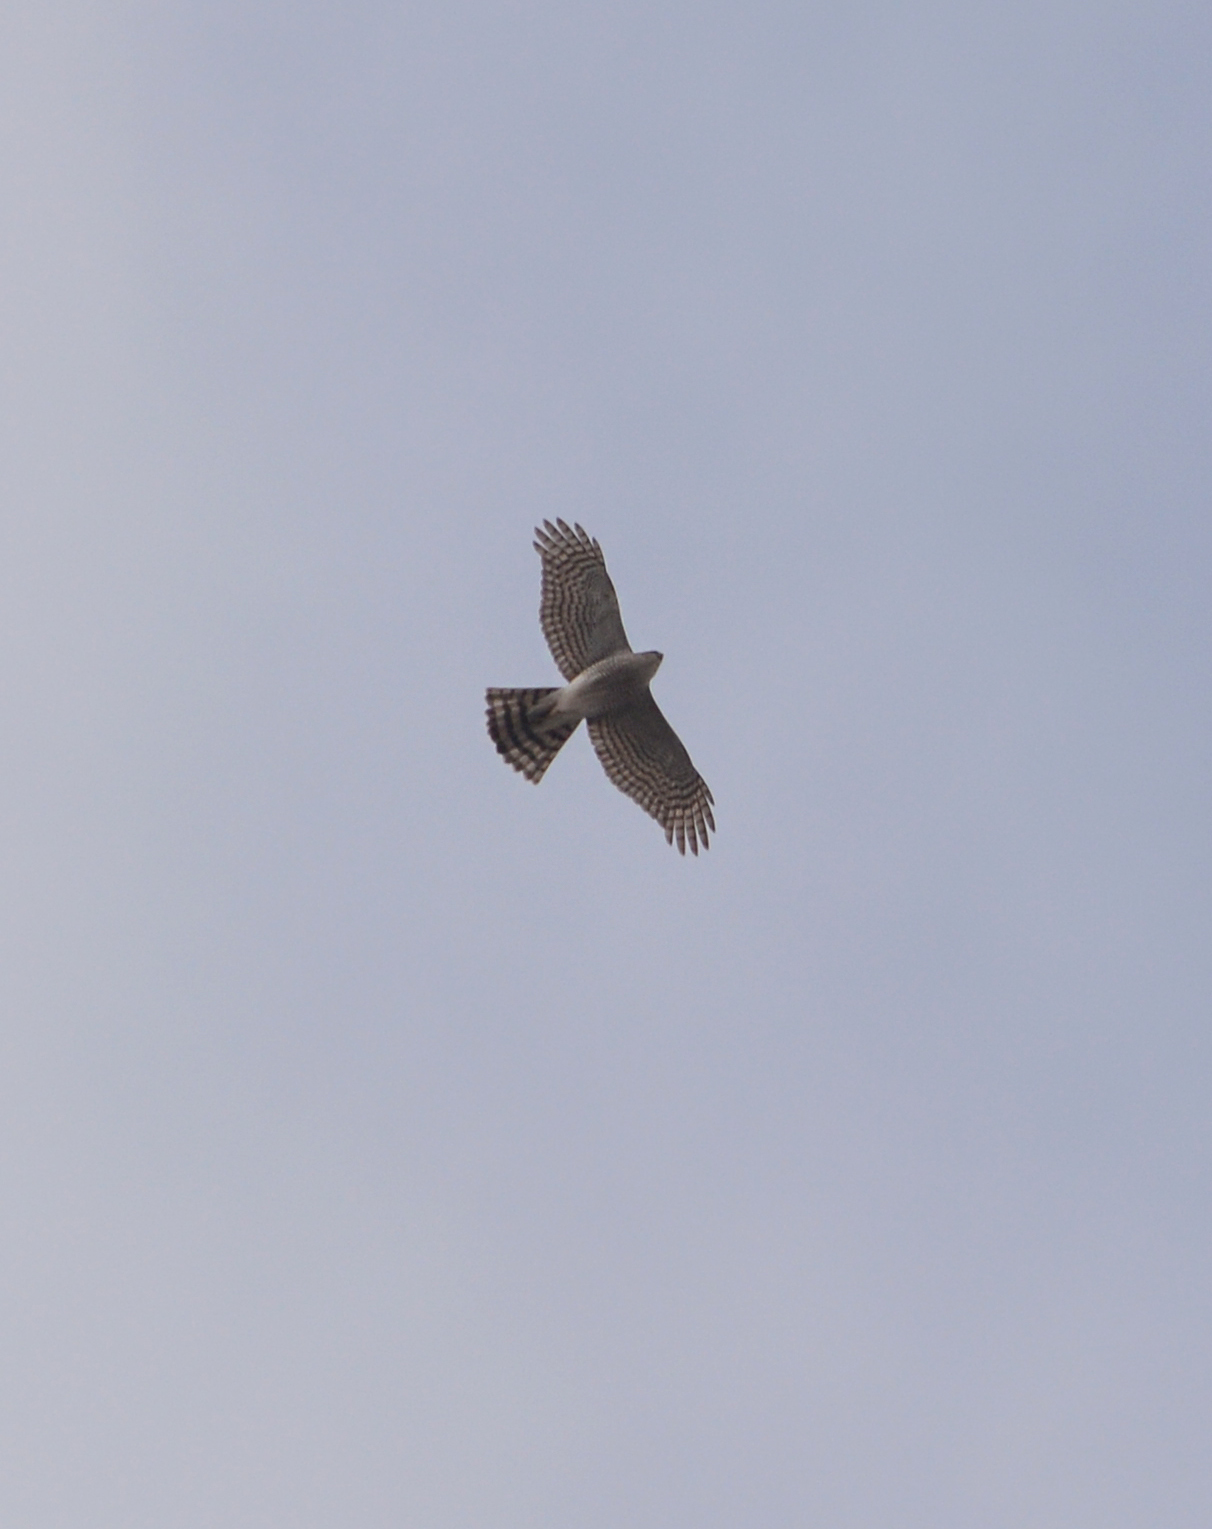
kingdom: Animalia
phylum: Chordata
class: Aves
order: Accipitriformes
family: Accipitridae
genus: Accipiter
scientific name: Accipiter nisus
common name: Eurasian sparrowhawk
